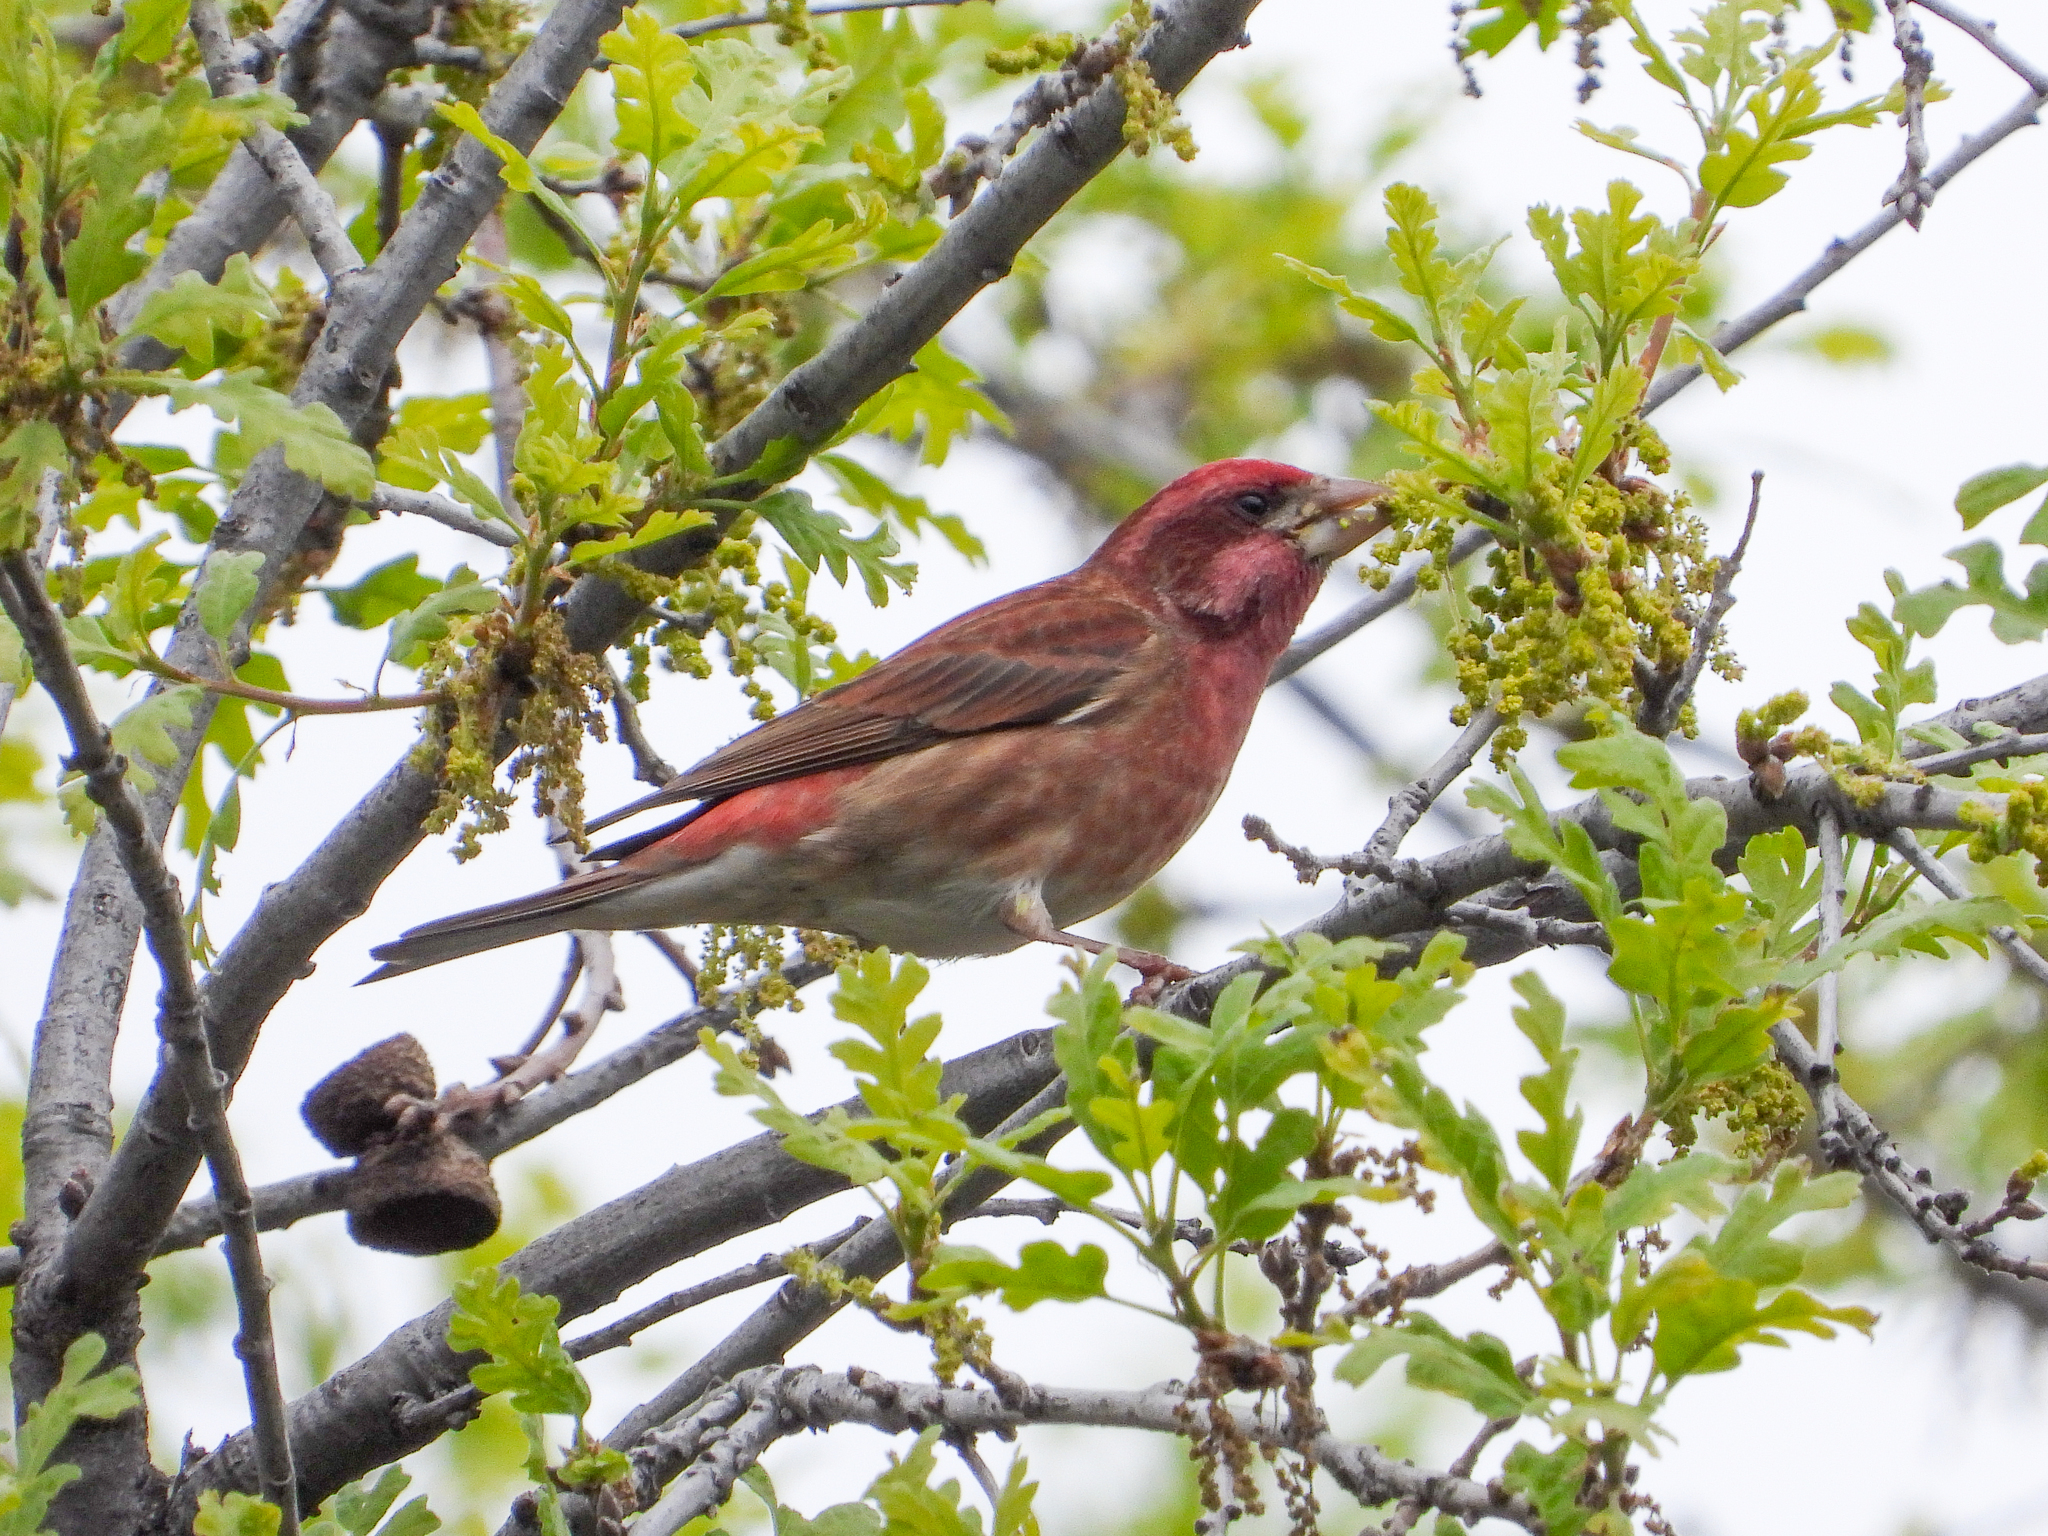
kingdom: Animalia
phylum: Chordata
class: Aves
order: Passeriformes
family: Fringillidae
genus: Haemorhous
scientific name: Haemorhous purpureus
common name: Purple finch
